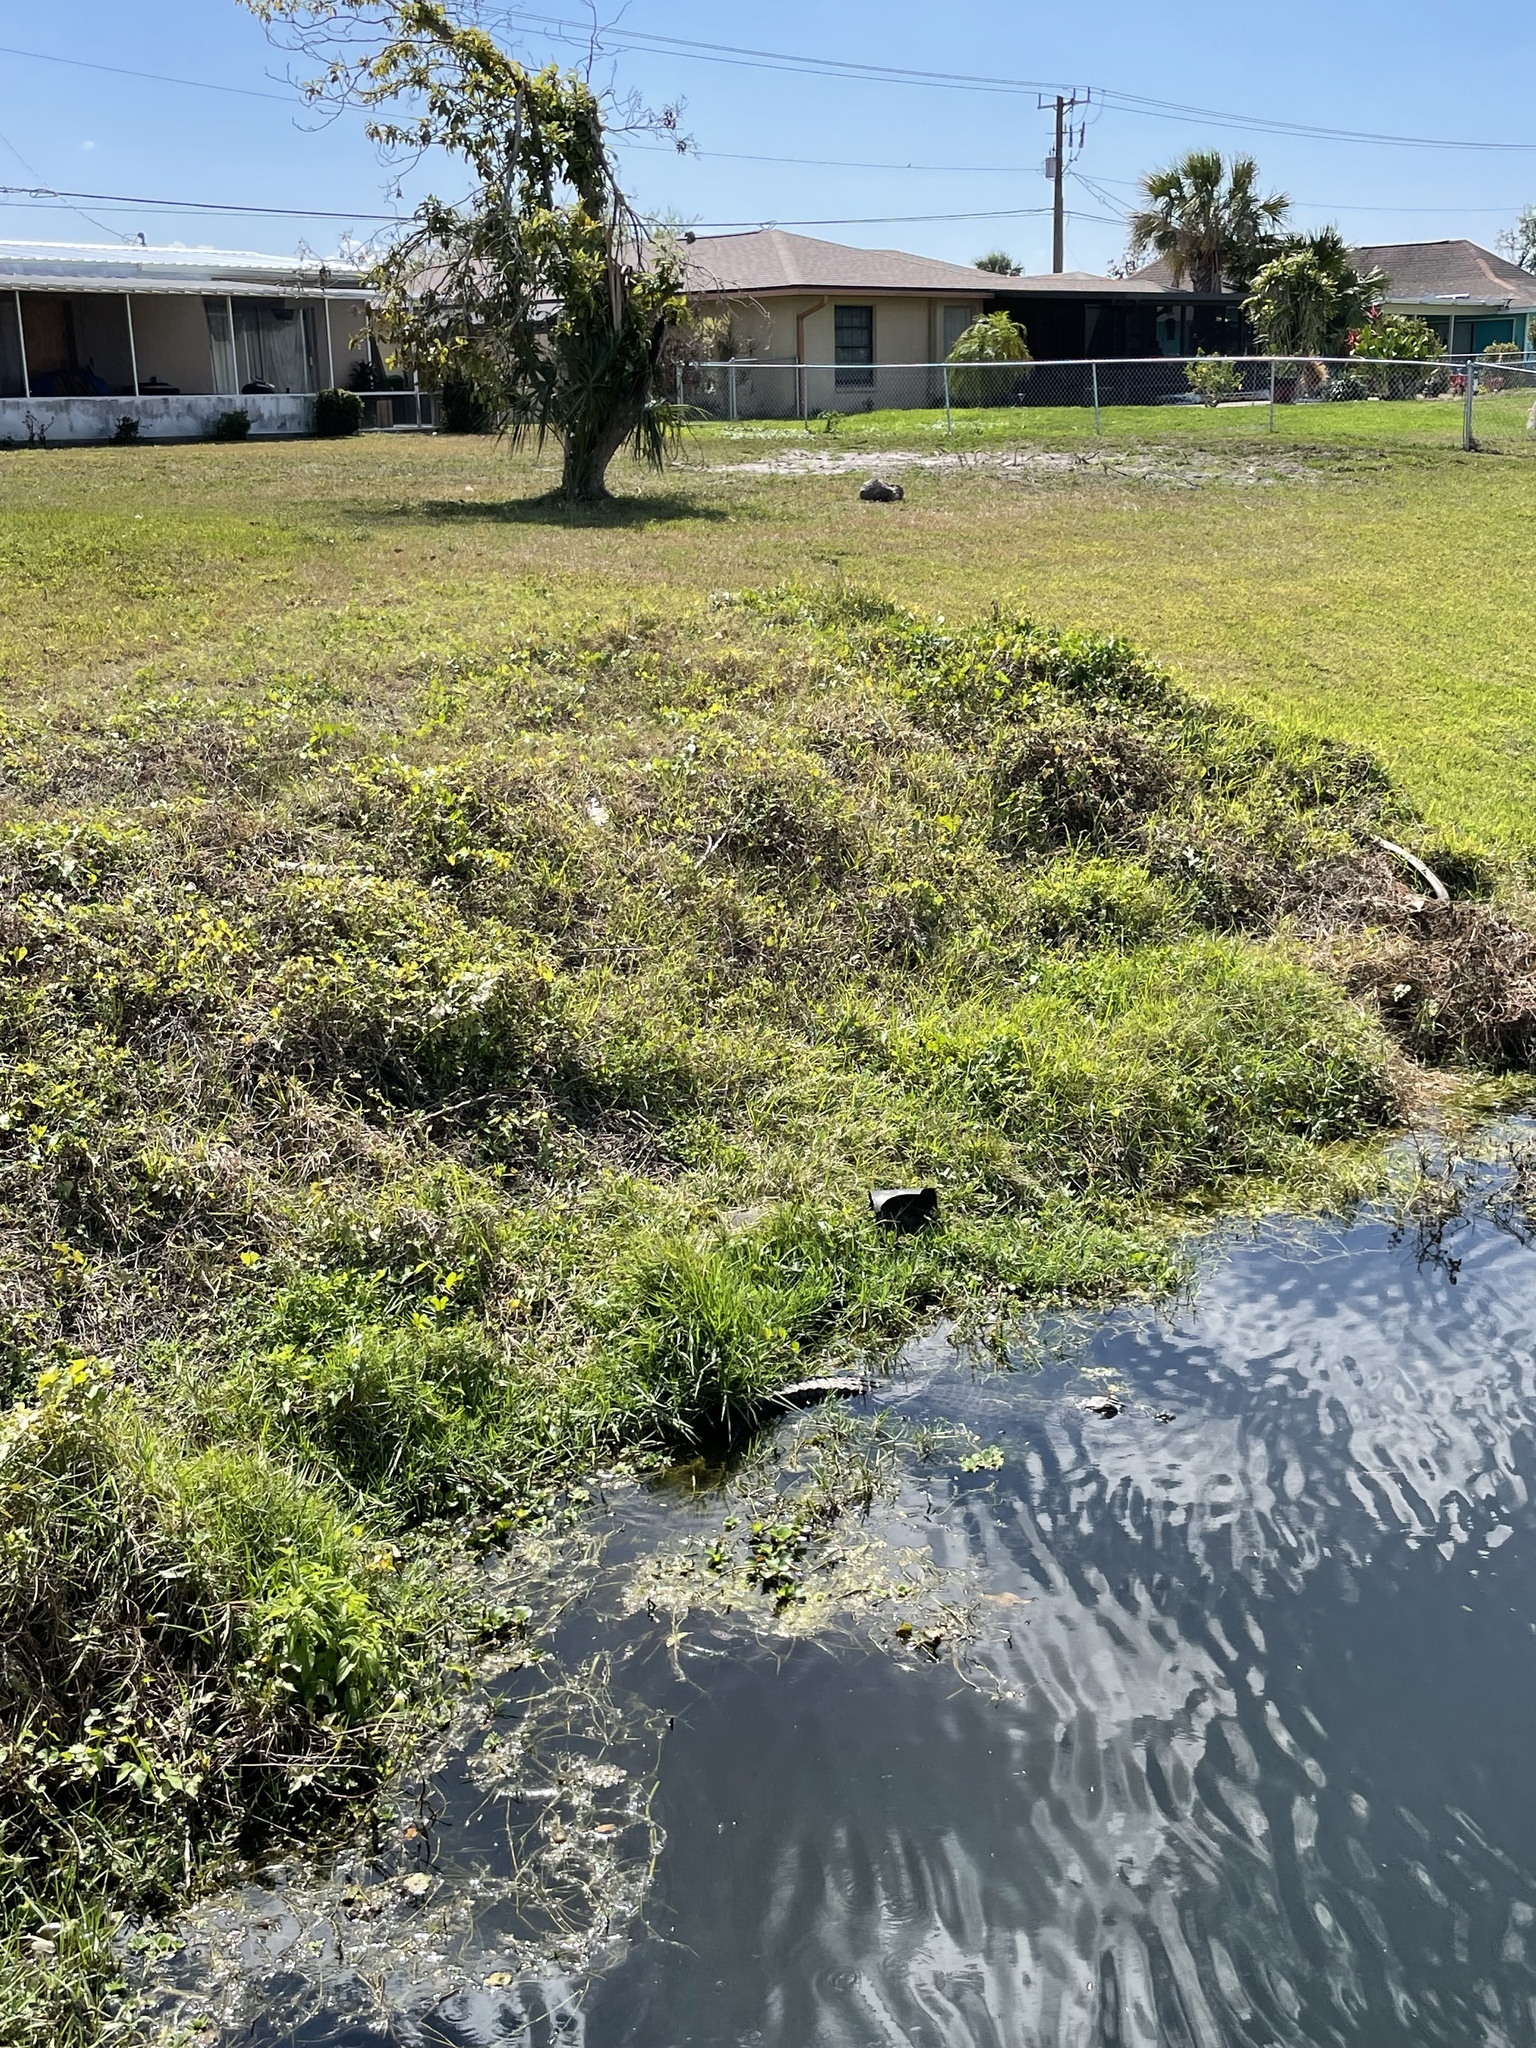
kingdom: Animalia
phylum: Chordata
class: Crocodylia
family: Alligatoridae
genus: Alligator
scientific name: Alligator mississippiensis
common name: American alligator
